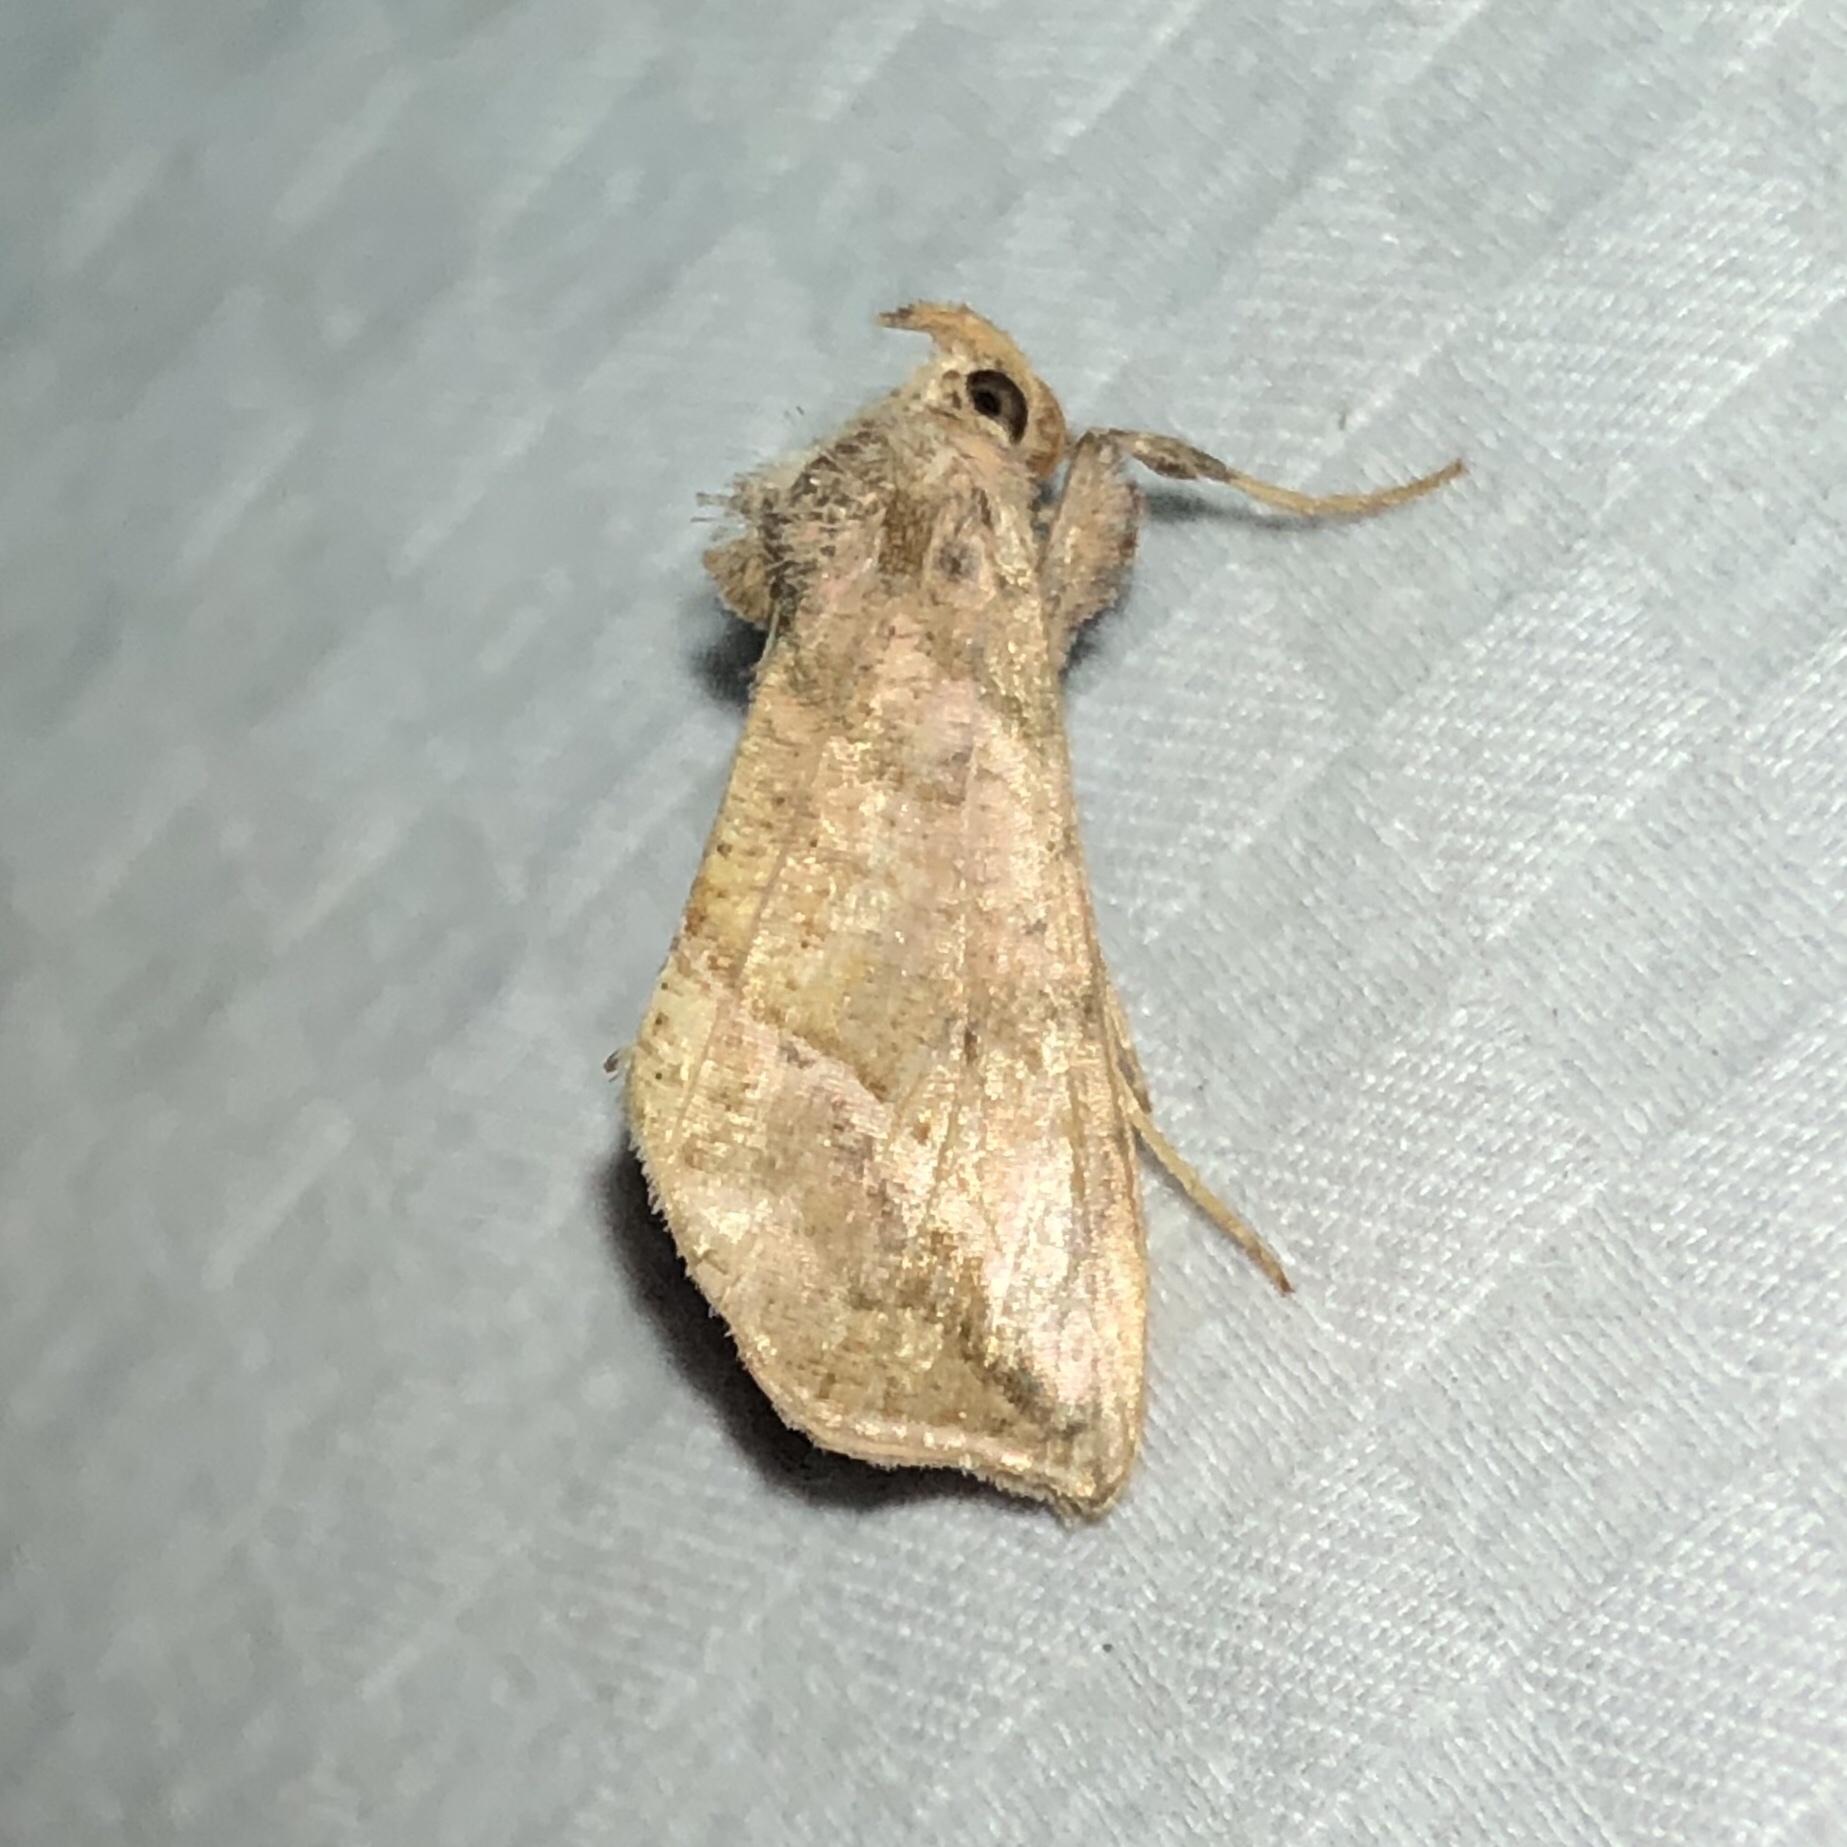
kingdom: Animalia
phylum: Arthropoda
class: Insecta
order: Lepidoptera
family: Noctuidae
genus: Pseudeva
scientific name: Pseudeva purpurigera
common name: Straight-lined looper moth
